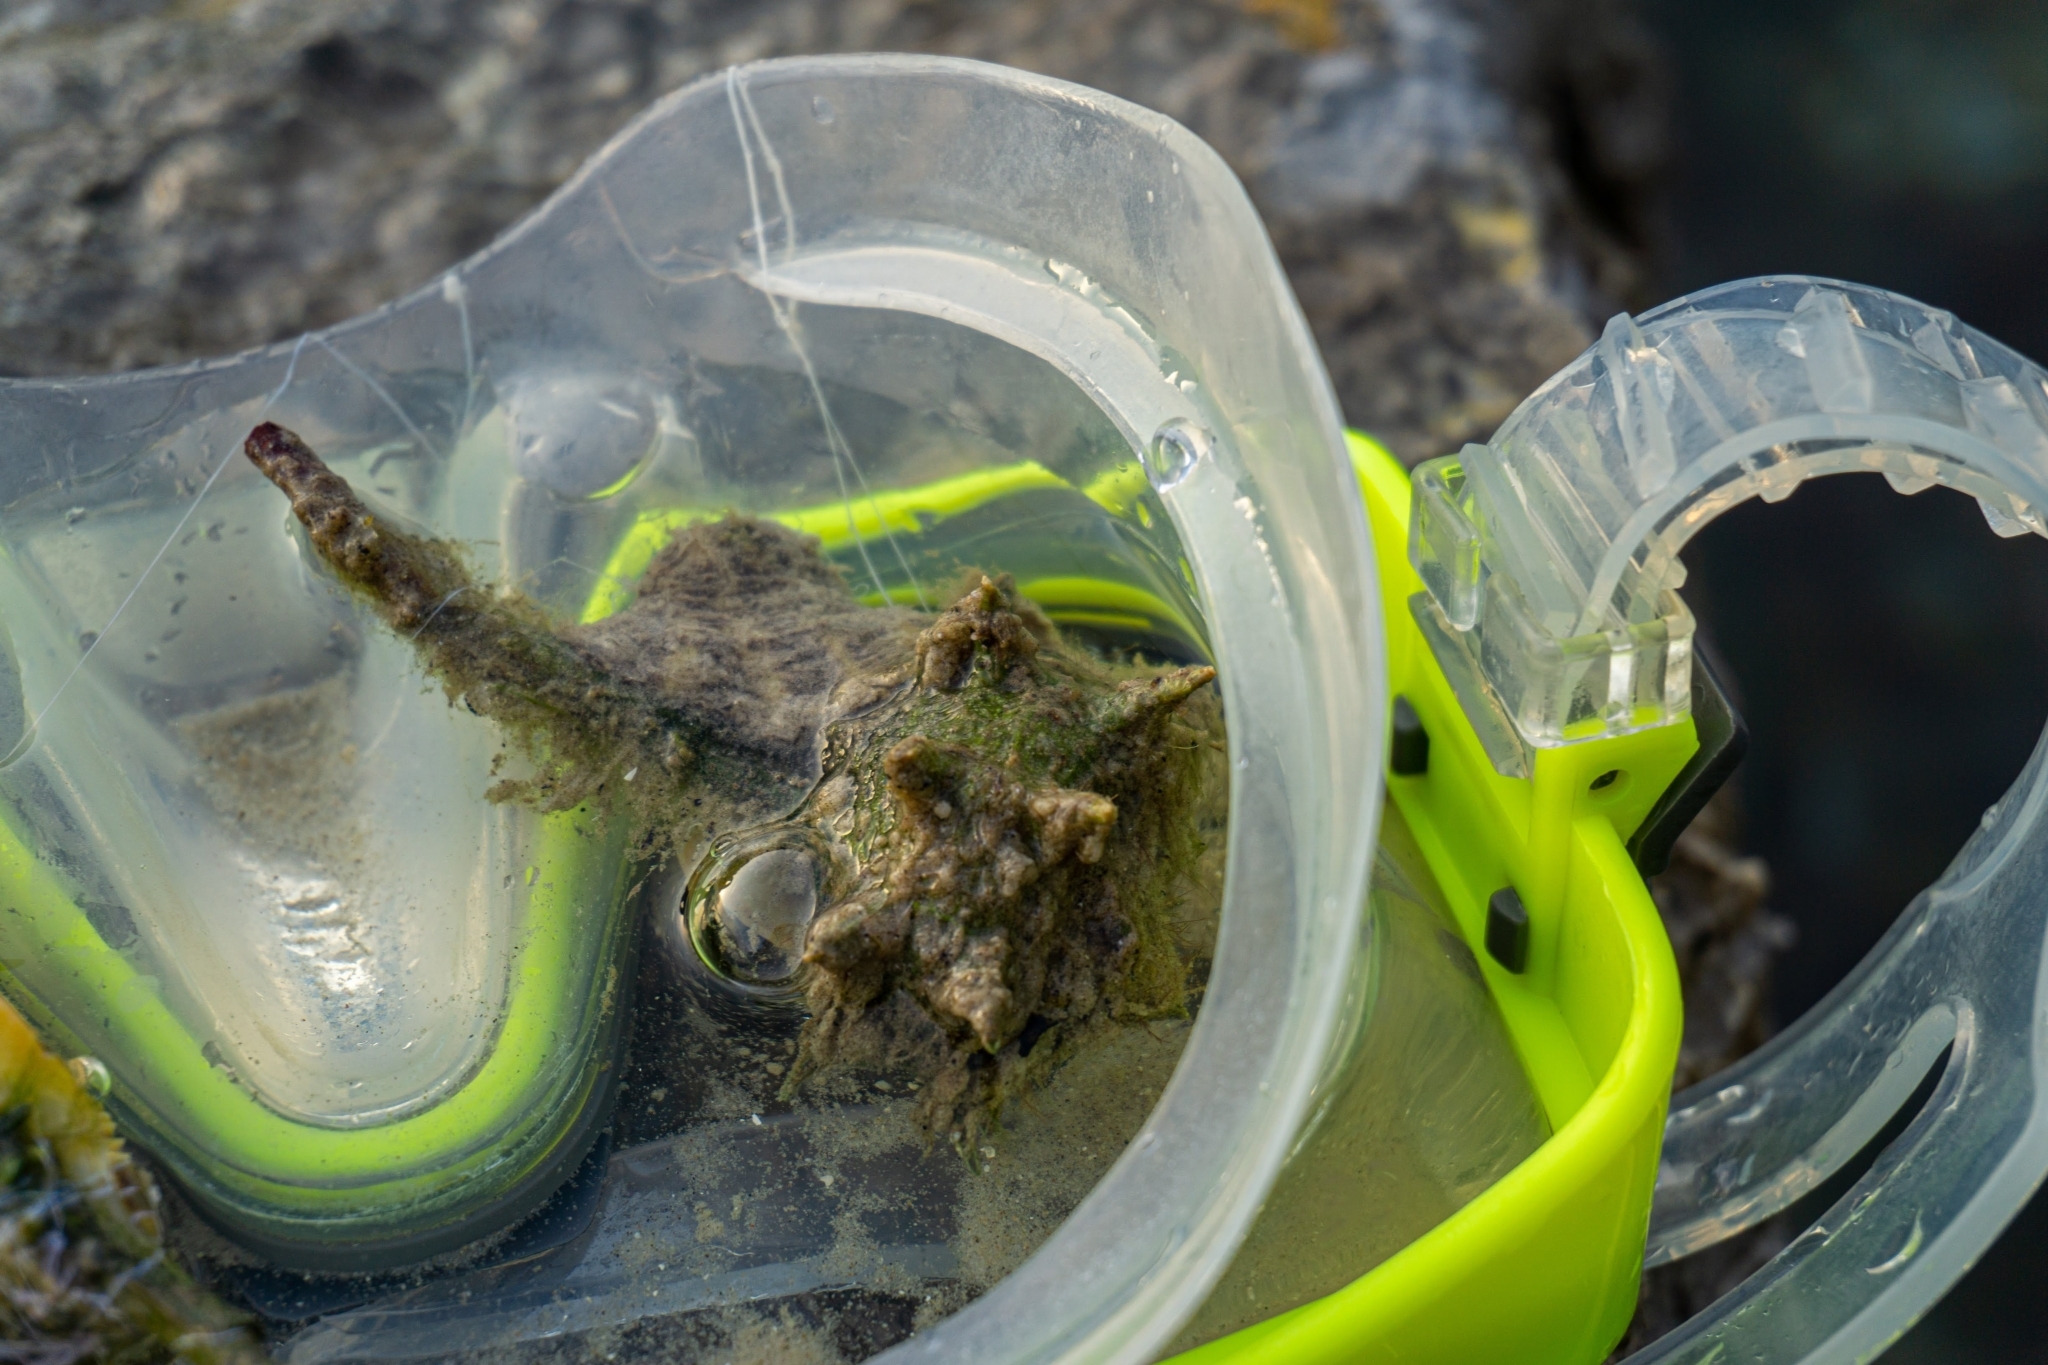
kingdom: Animalia
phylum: Mollusca
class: Gastropoda
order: Neogastropoda
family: Muricidae
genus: Bolinus
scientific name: Bolinus brandaris
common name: Dye murex
